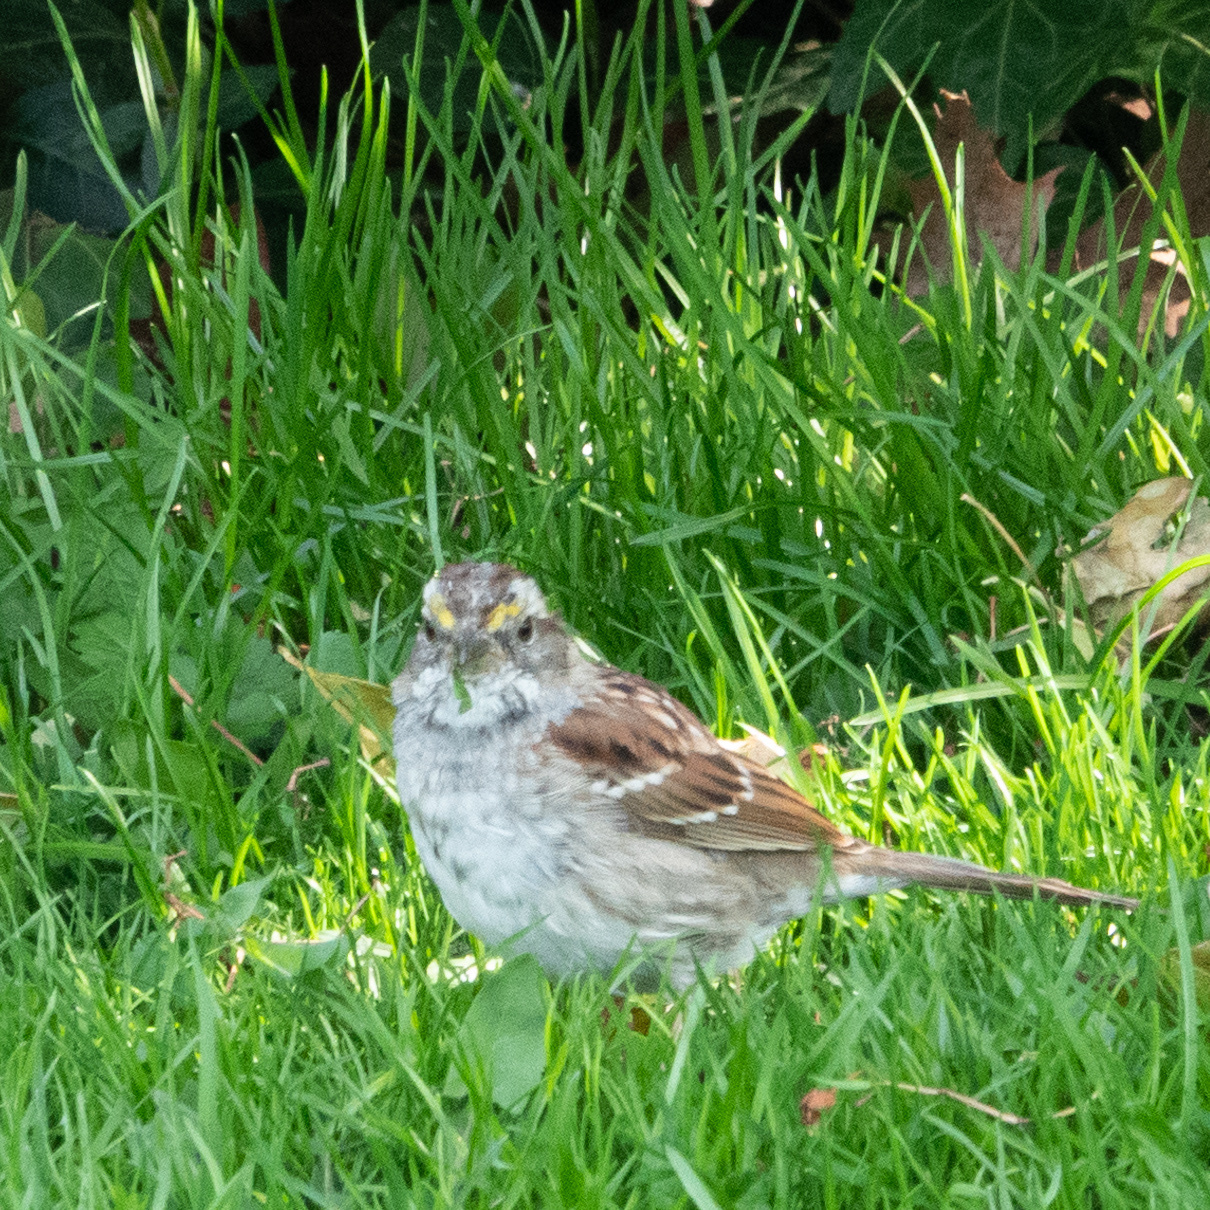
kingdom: Animalia
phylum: Chordata
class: Aves
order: Passeriformes
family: Passerellidae
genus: Zonotrichia
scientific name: Zonotrichia albicollis
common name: White-throated sparrow
